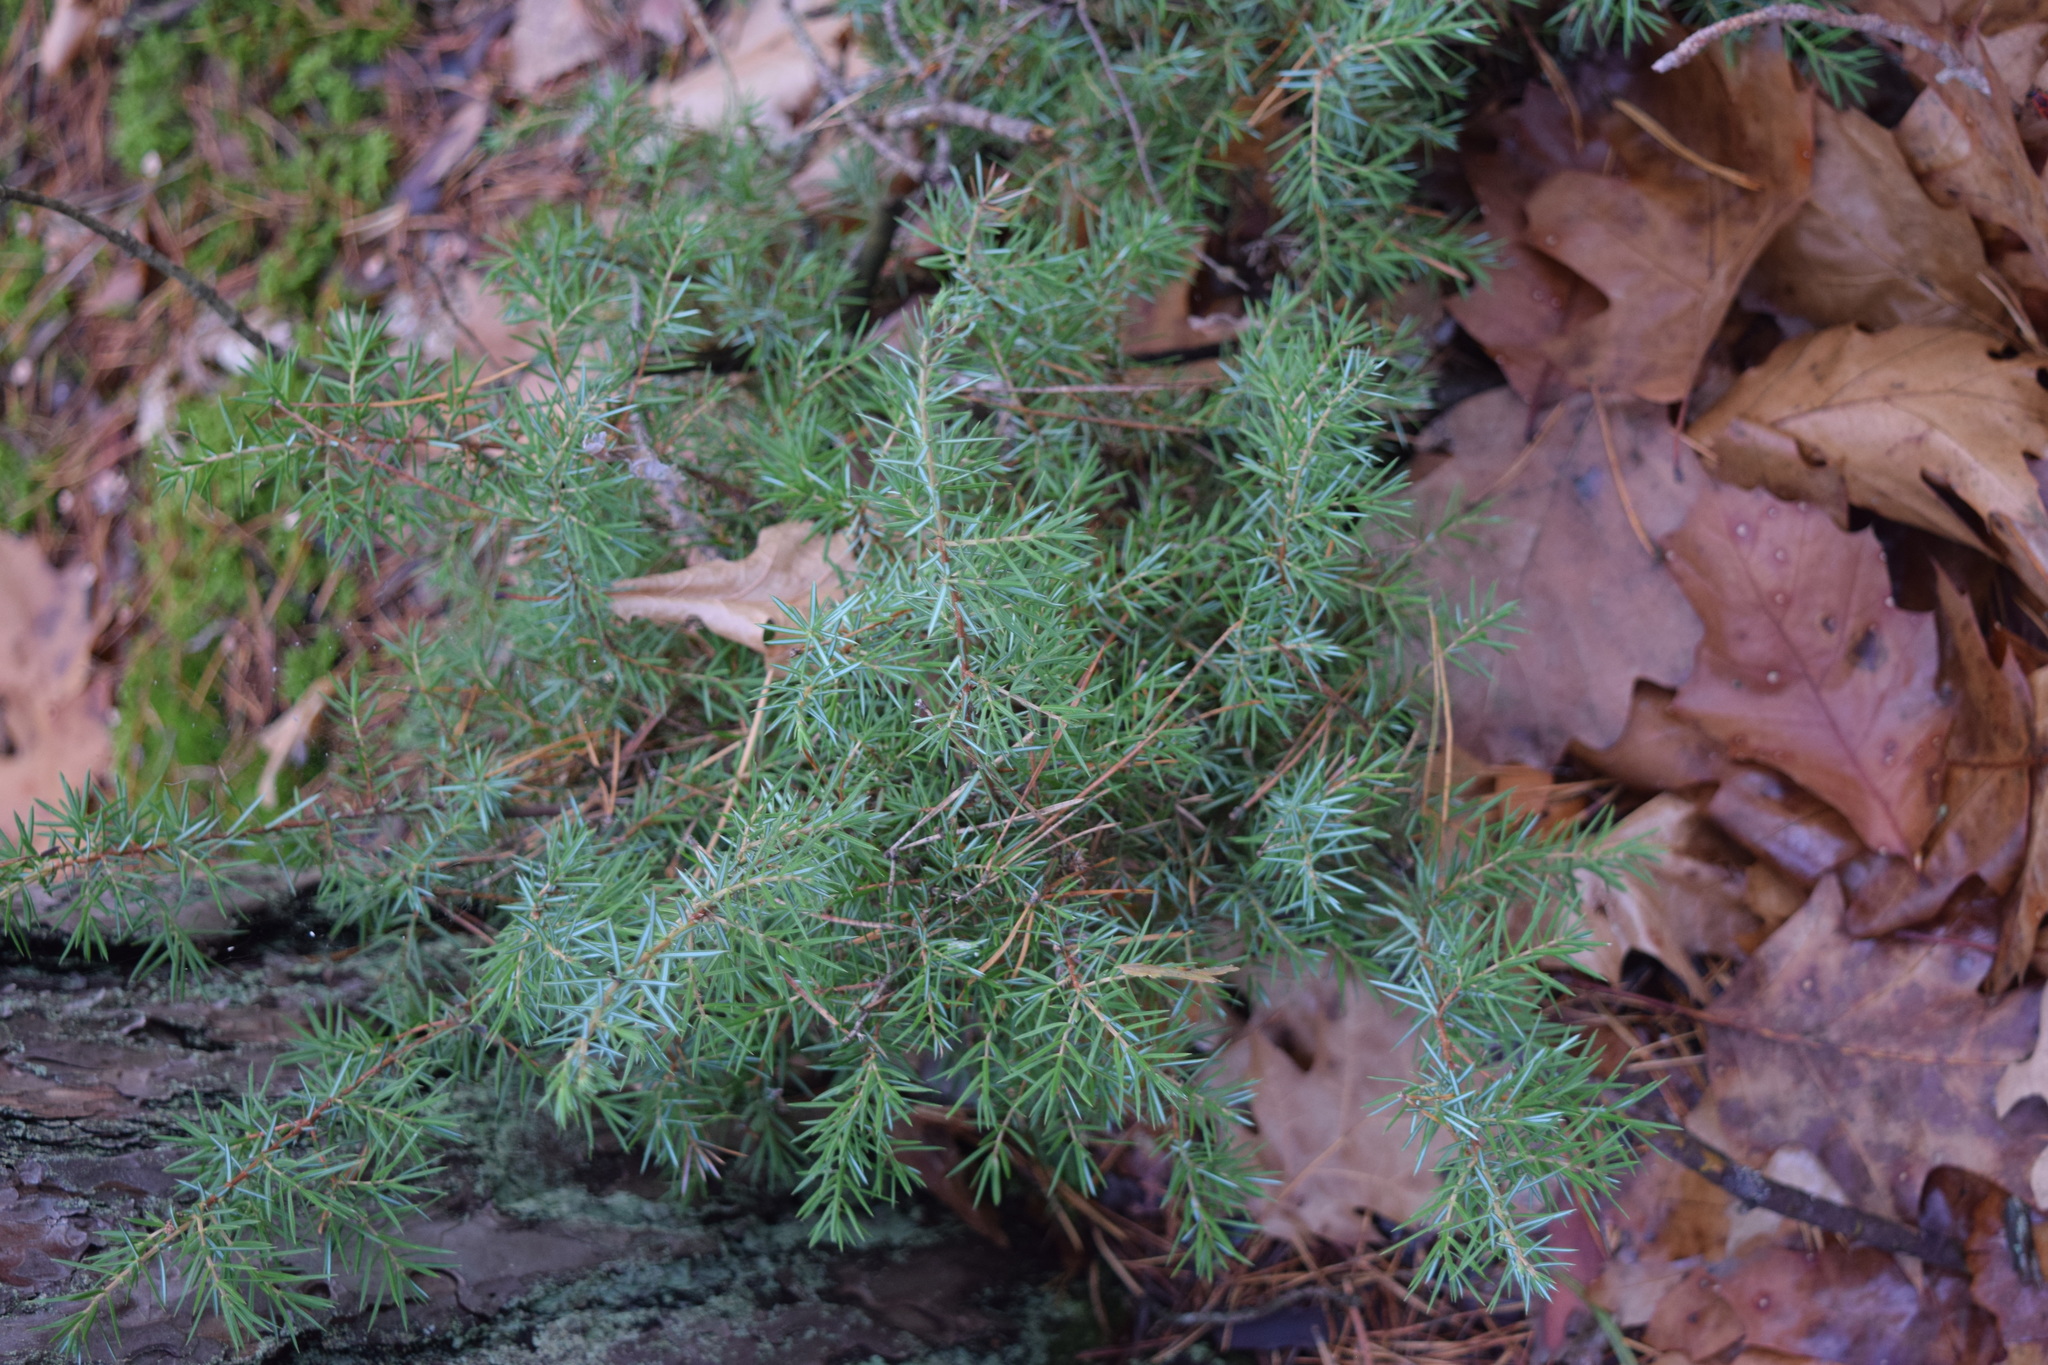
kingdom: Plantae
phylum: Tracheophyta
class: Pinopsida
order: Pinales
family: Cupressaceae
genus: Juniperus
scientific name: Juniperus communis
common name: Common juniper
